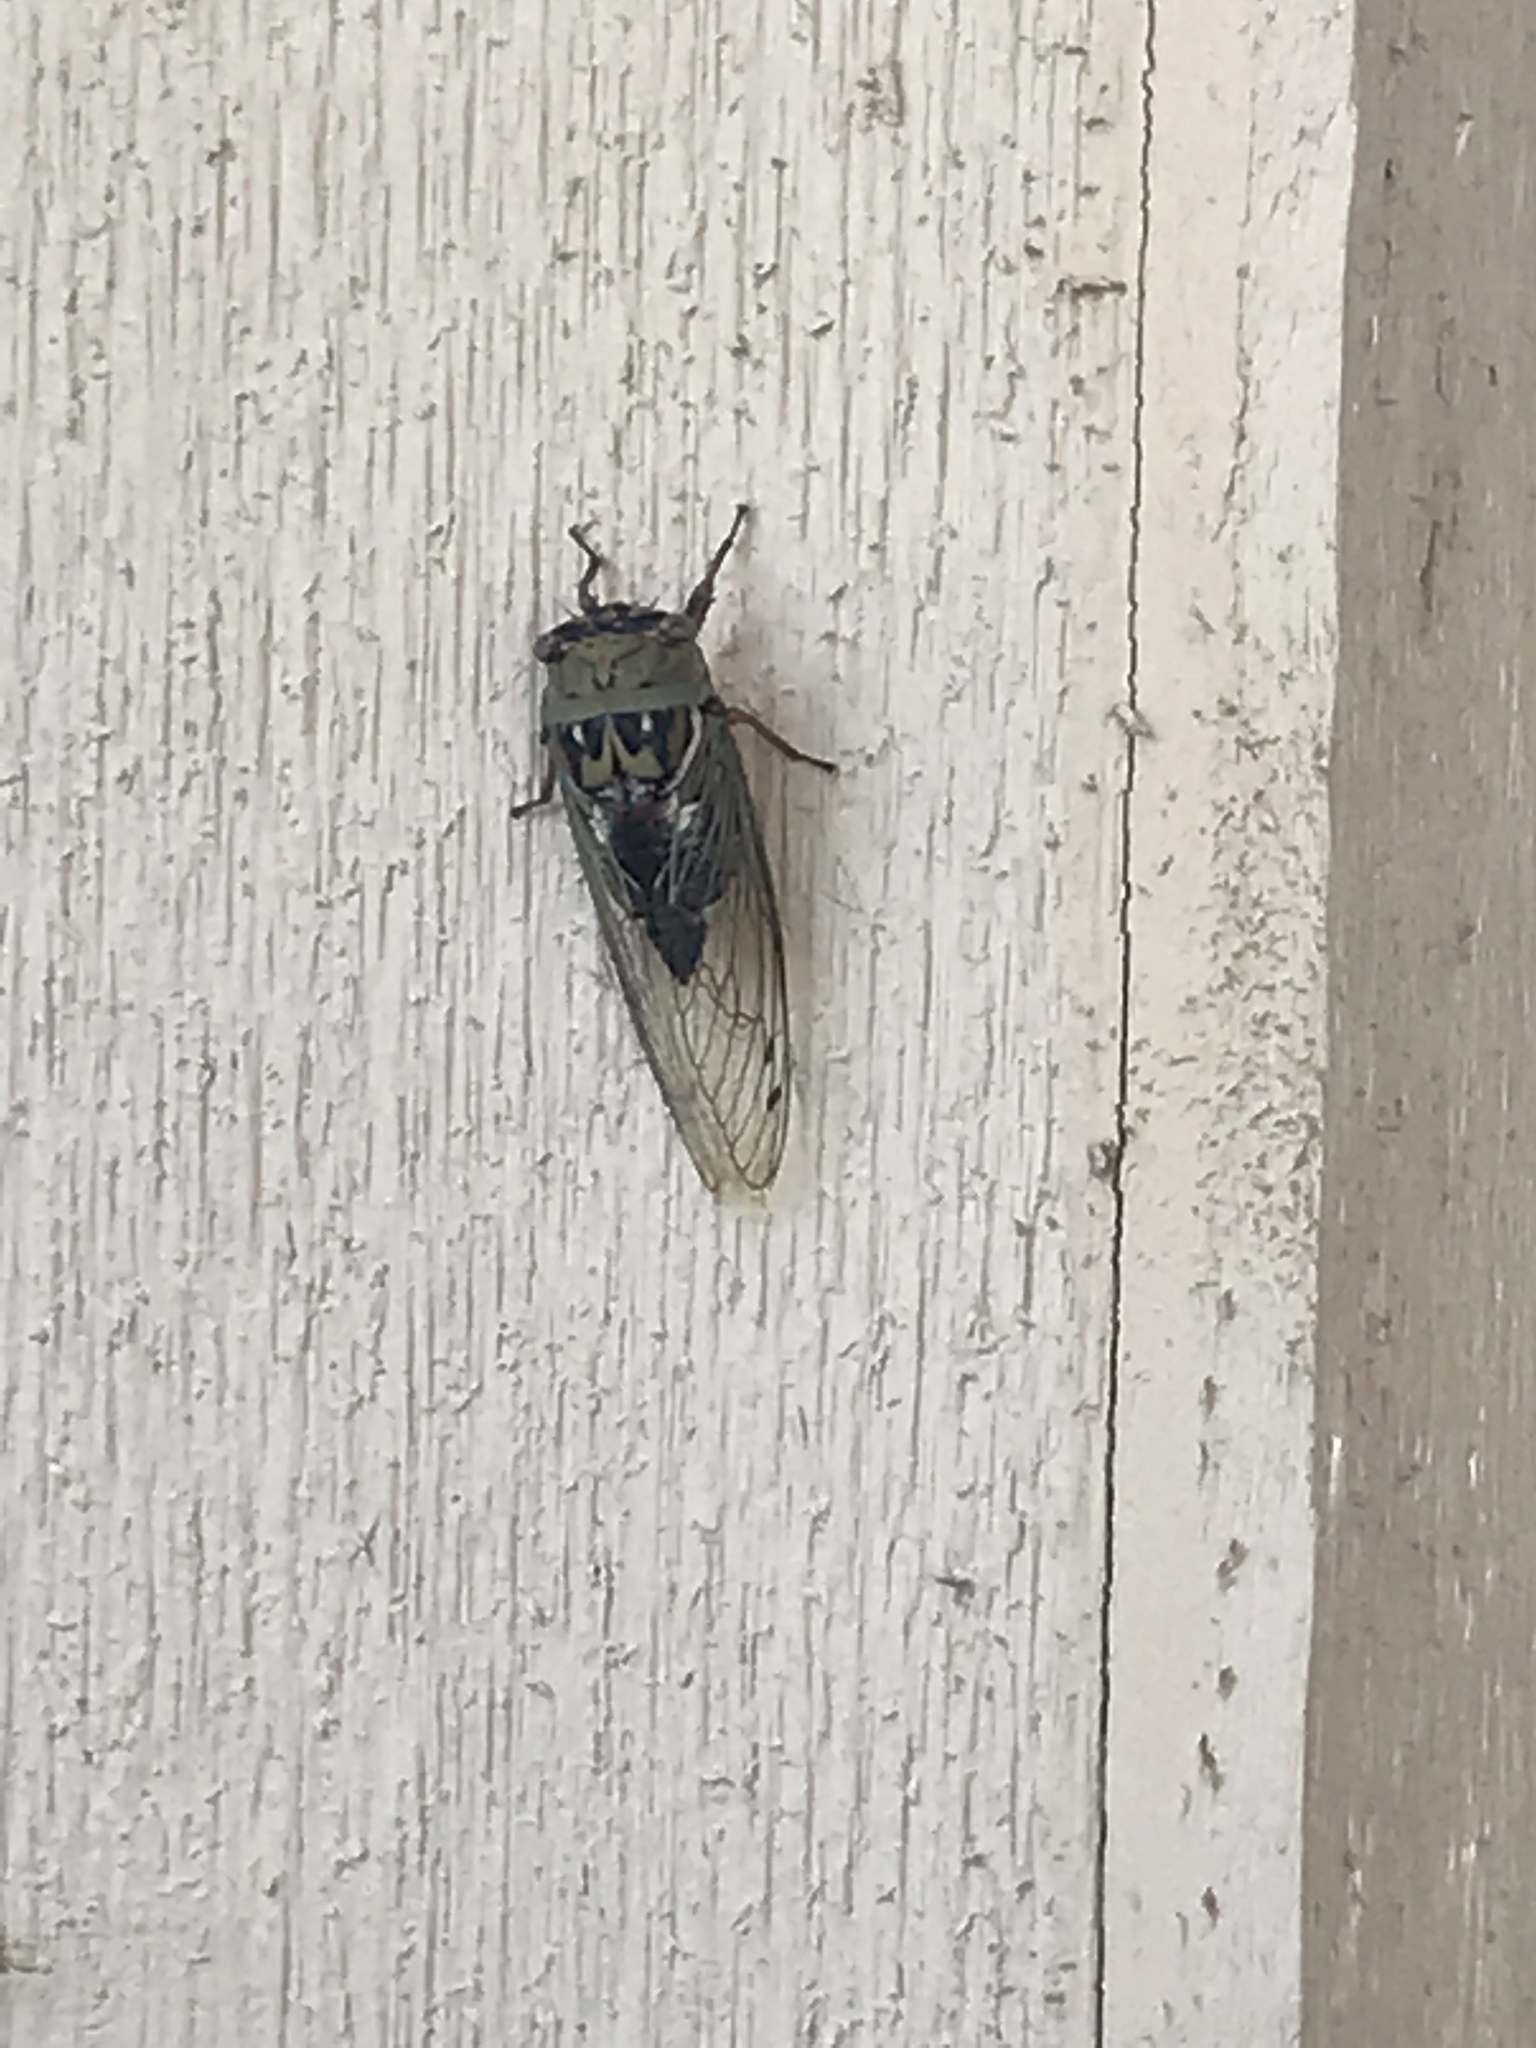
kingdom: Animalia
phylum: Arthropoda
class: Insecta
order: Hemiptera
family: Cicadidae
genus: Megatibicen
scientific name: Megatibicen resh
